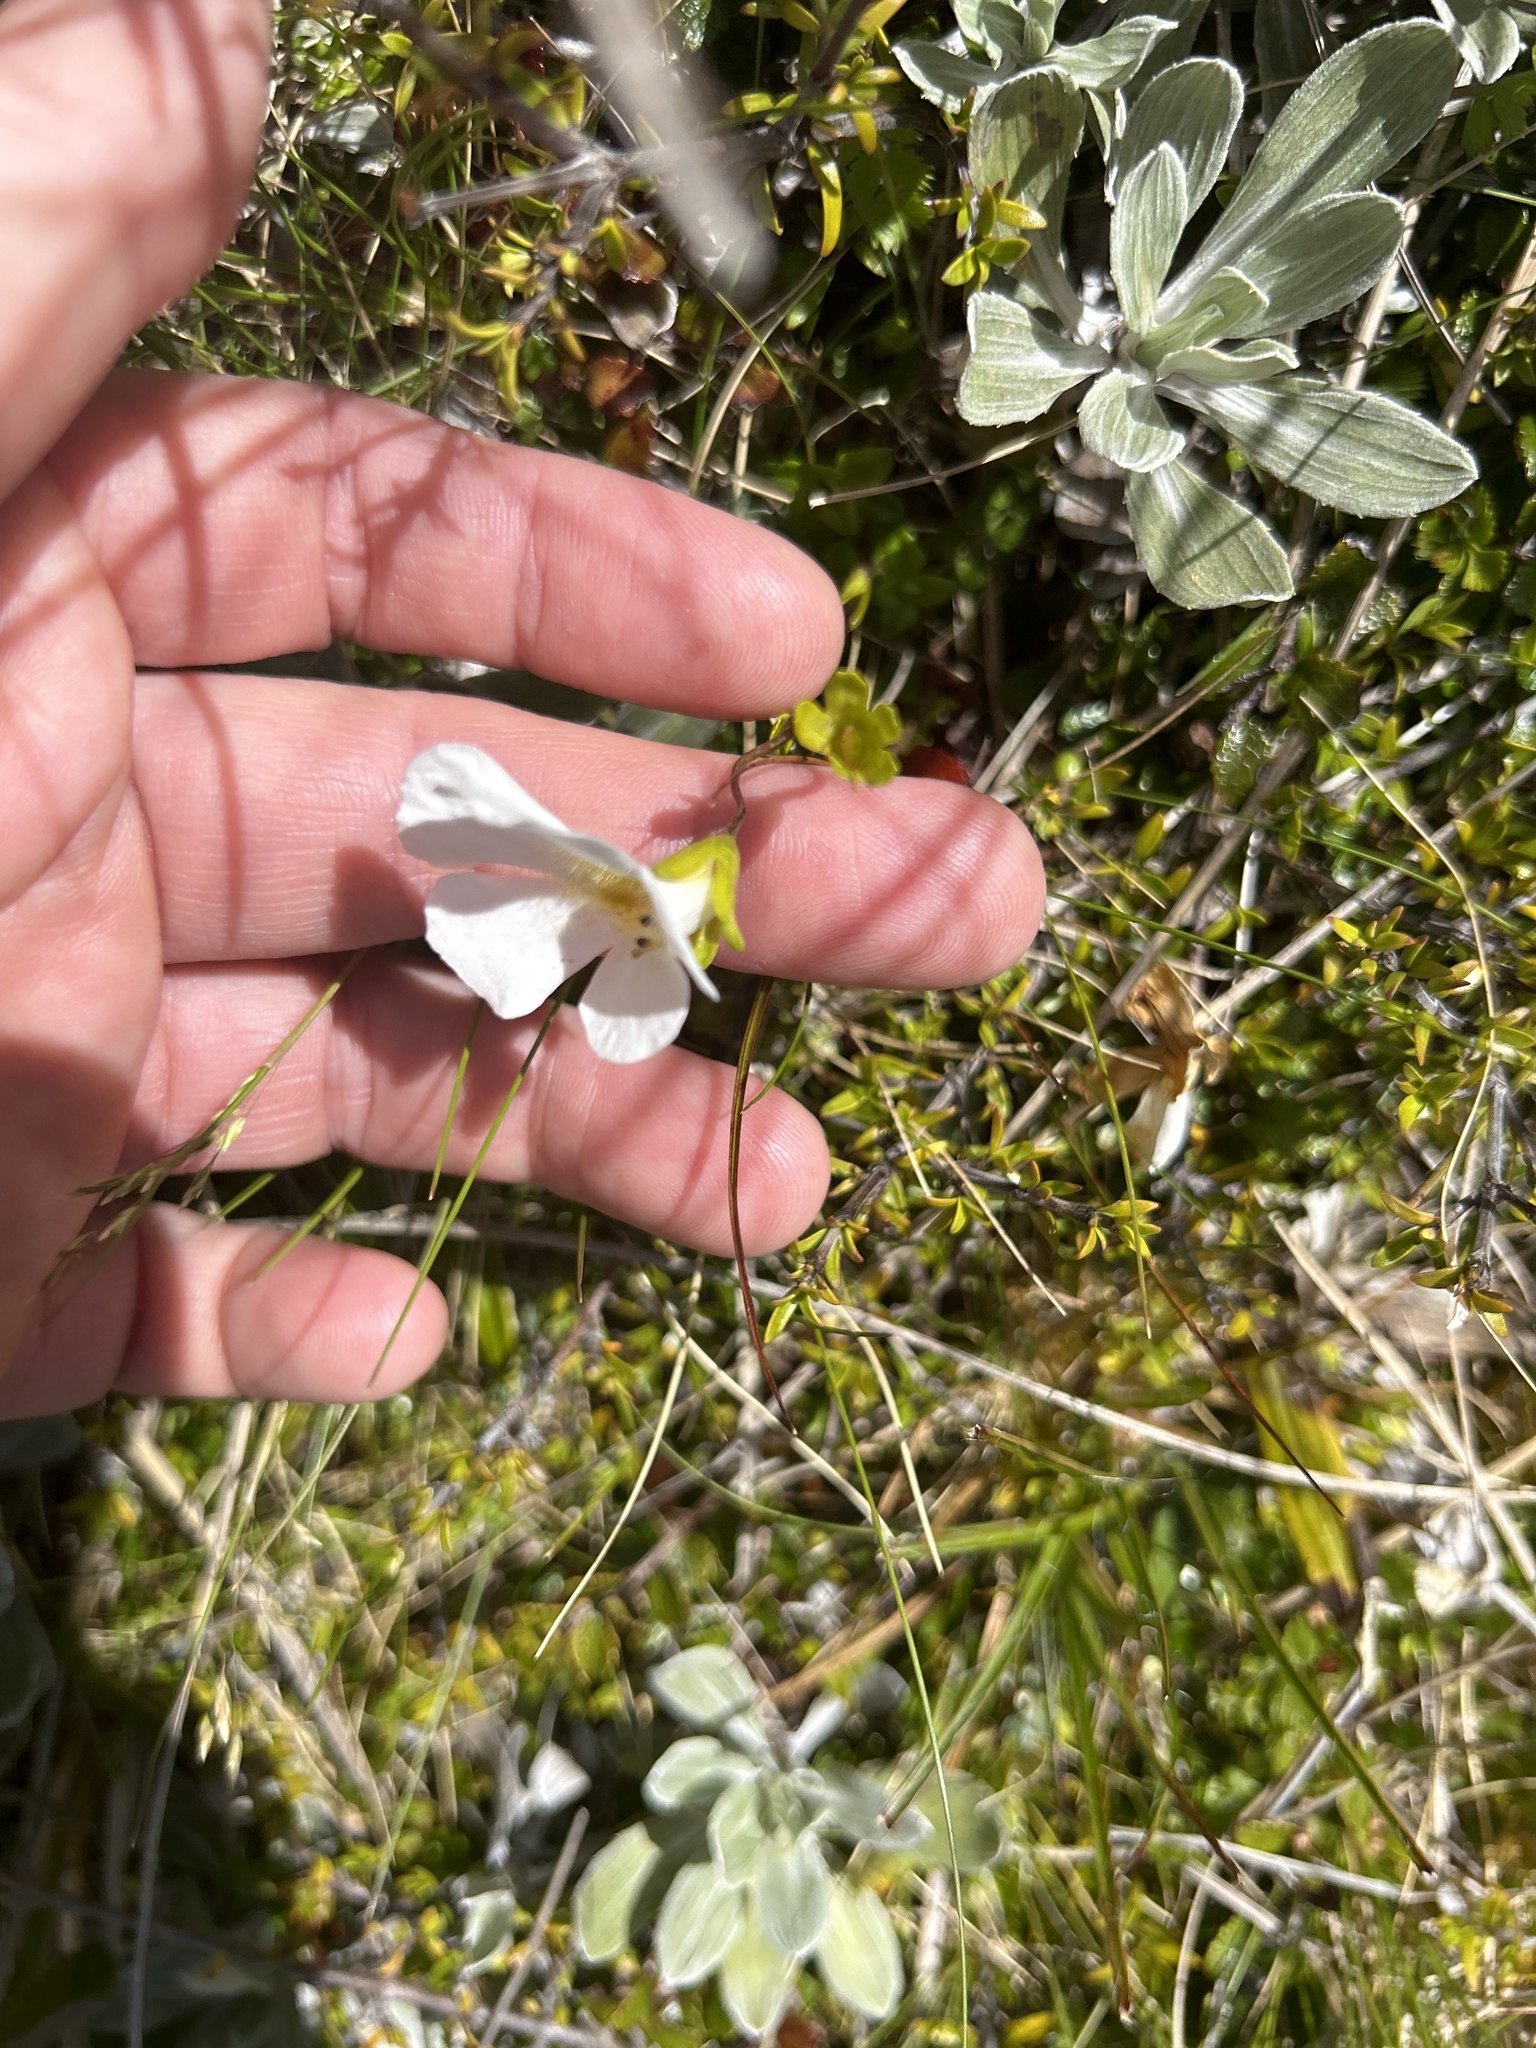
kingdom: Plantae
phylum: Tracheophyta
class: Magnoliopsida
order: Lamiales
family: Plantaginaceae
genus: Ourisia
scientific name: Ourisia caespitosa
